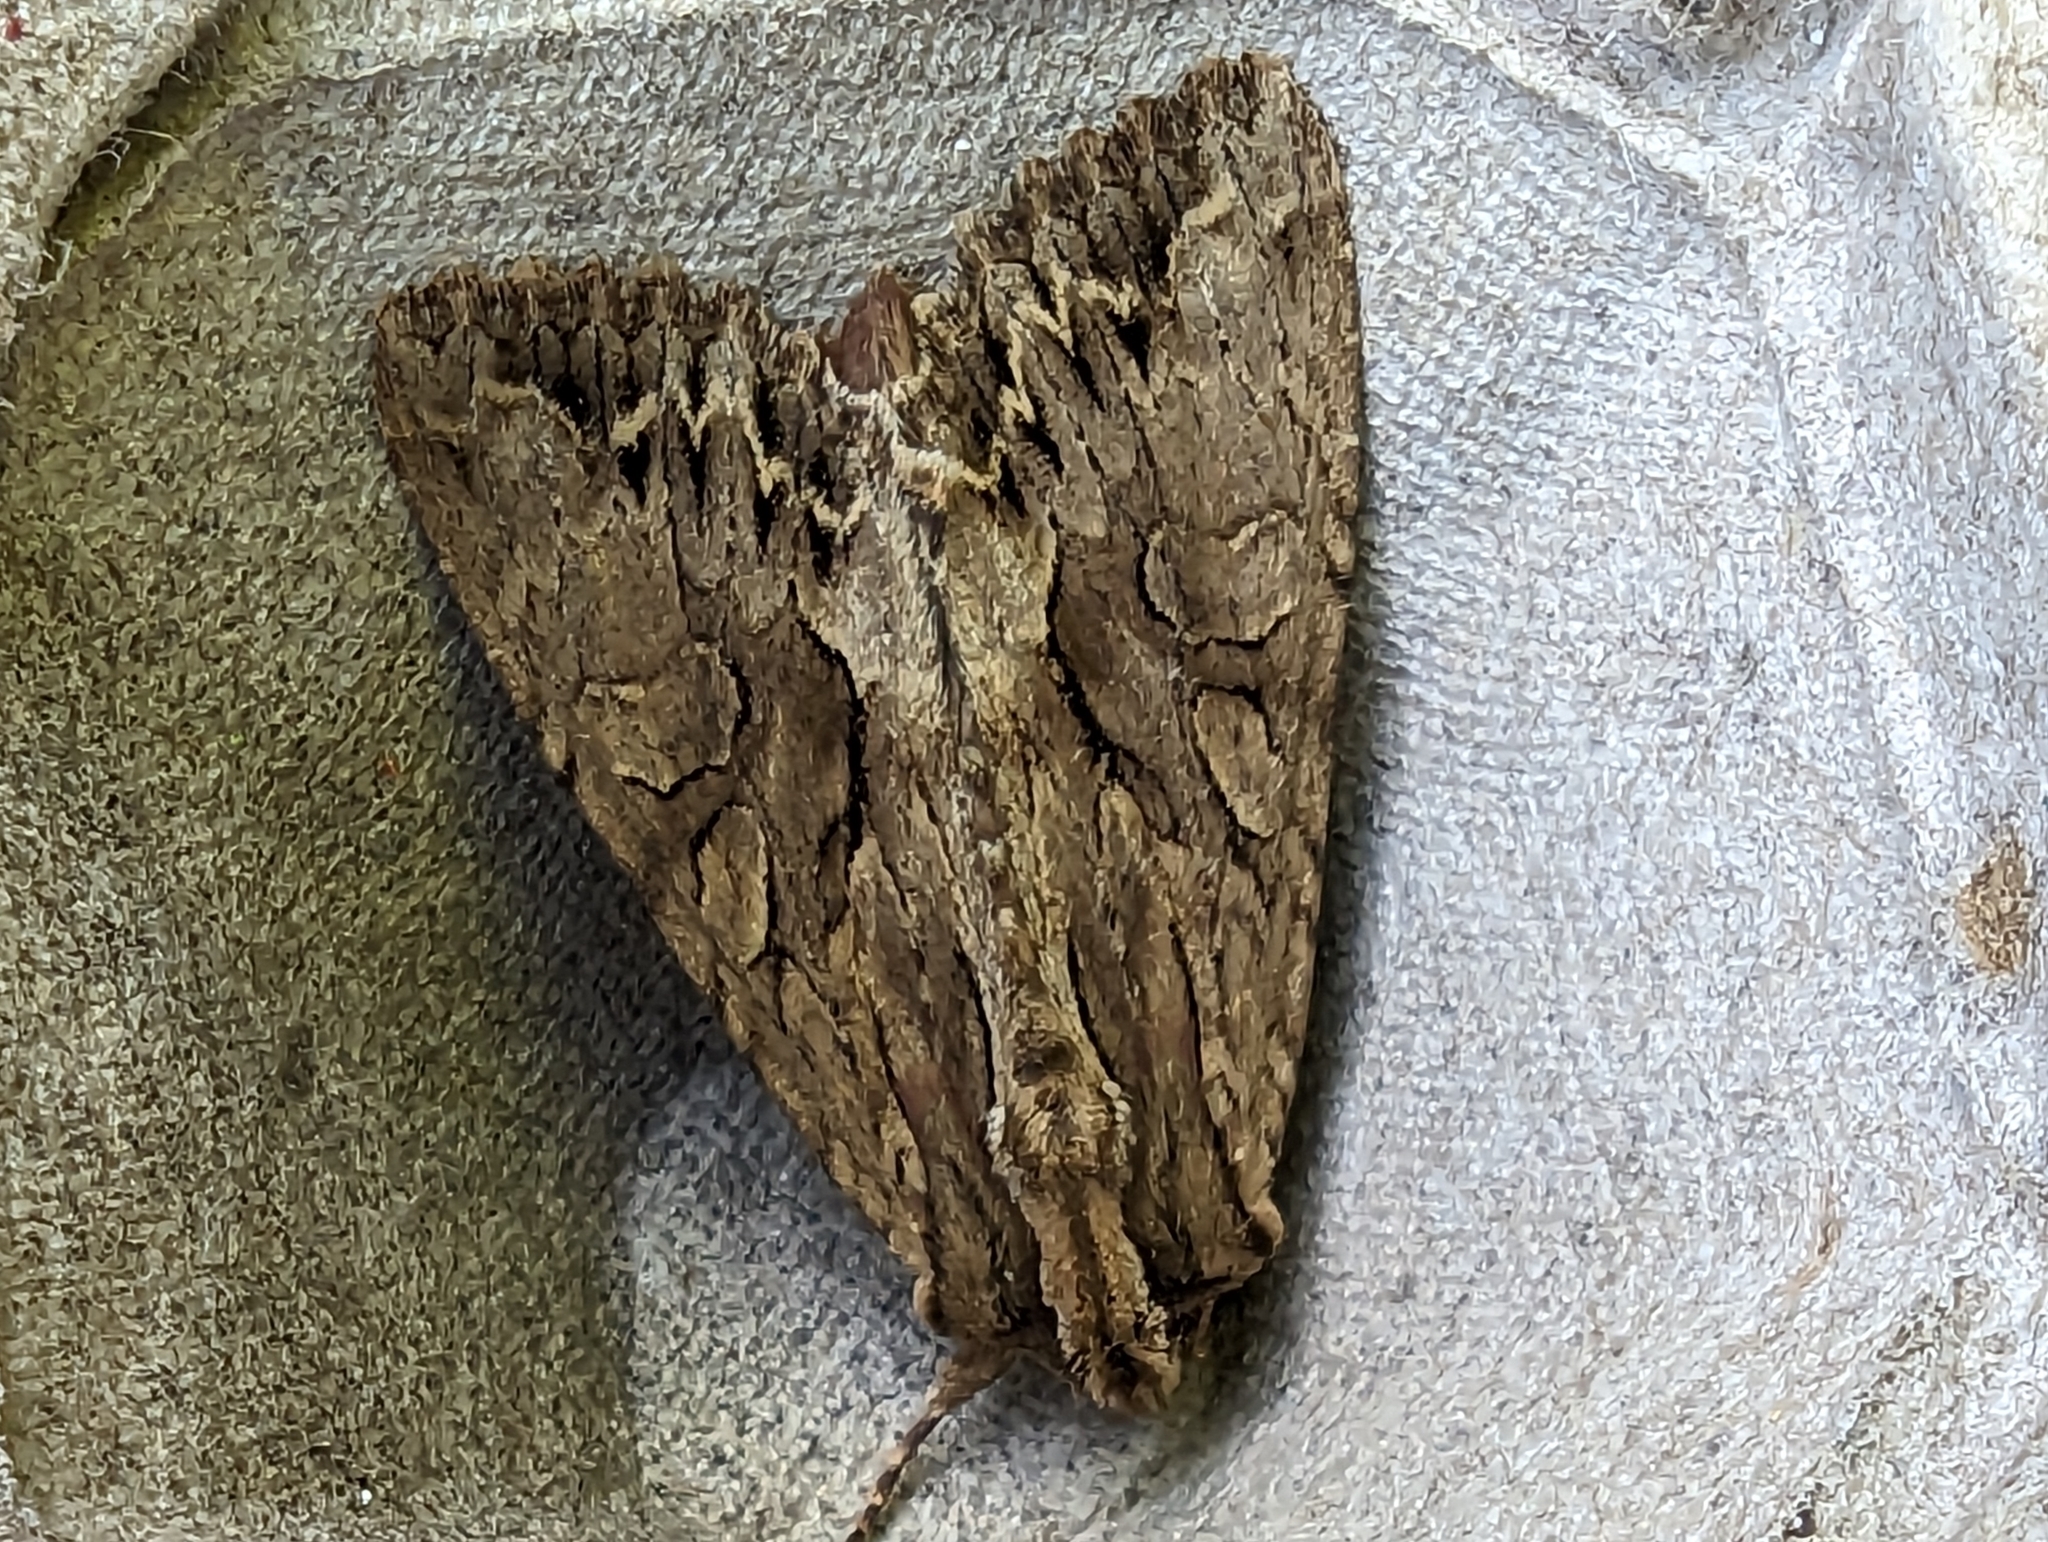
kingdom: Animalia
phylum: Arthropoda
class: Insecta
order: Lepidoptera
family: Noctuidae
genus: Apamea
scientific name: Apamea monoglypha
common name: Dark arches
